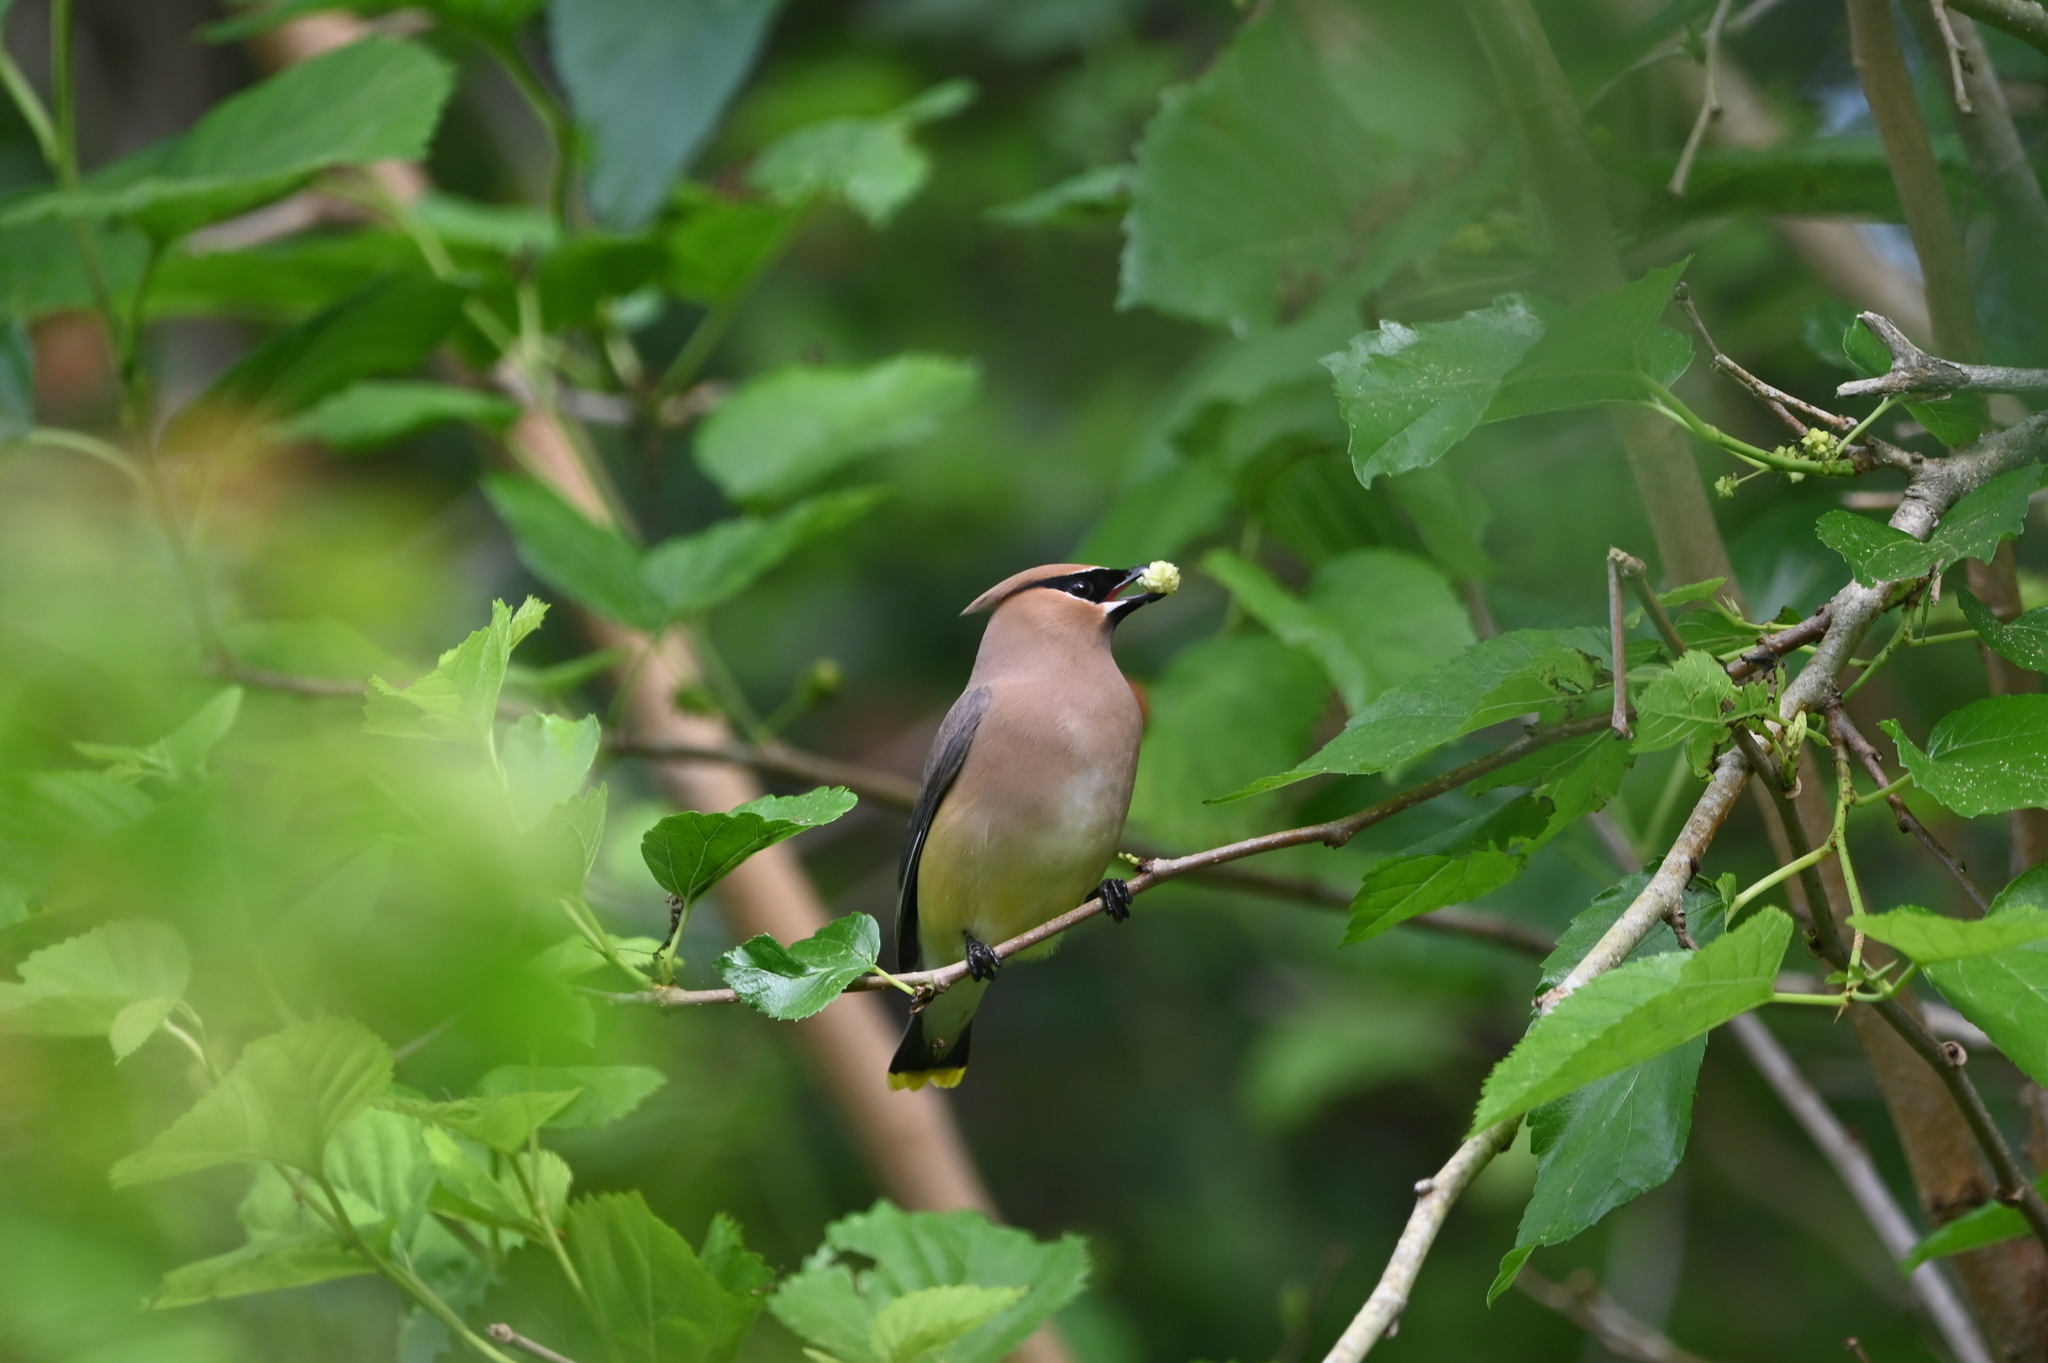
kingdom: Animalia
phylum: Chordata
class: Aves
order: Passeriformes
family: Bombycillidae
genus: Bombycilla
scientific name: Bombycilla cedrorum
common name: Cedar waxwing
